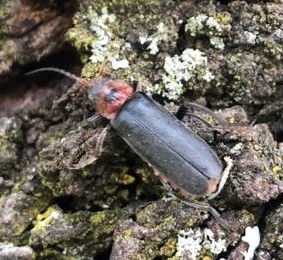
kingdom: Animalia
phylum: Arthropoda
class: Insecta
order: Coleoptera
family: Cantharidae
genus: Cantharis
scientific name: Cantharis rustica
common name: Soldier beetle
